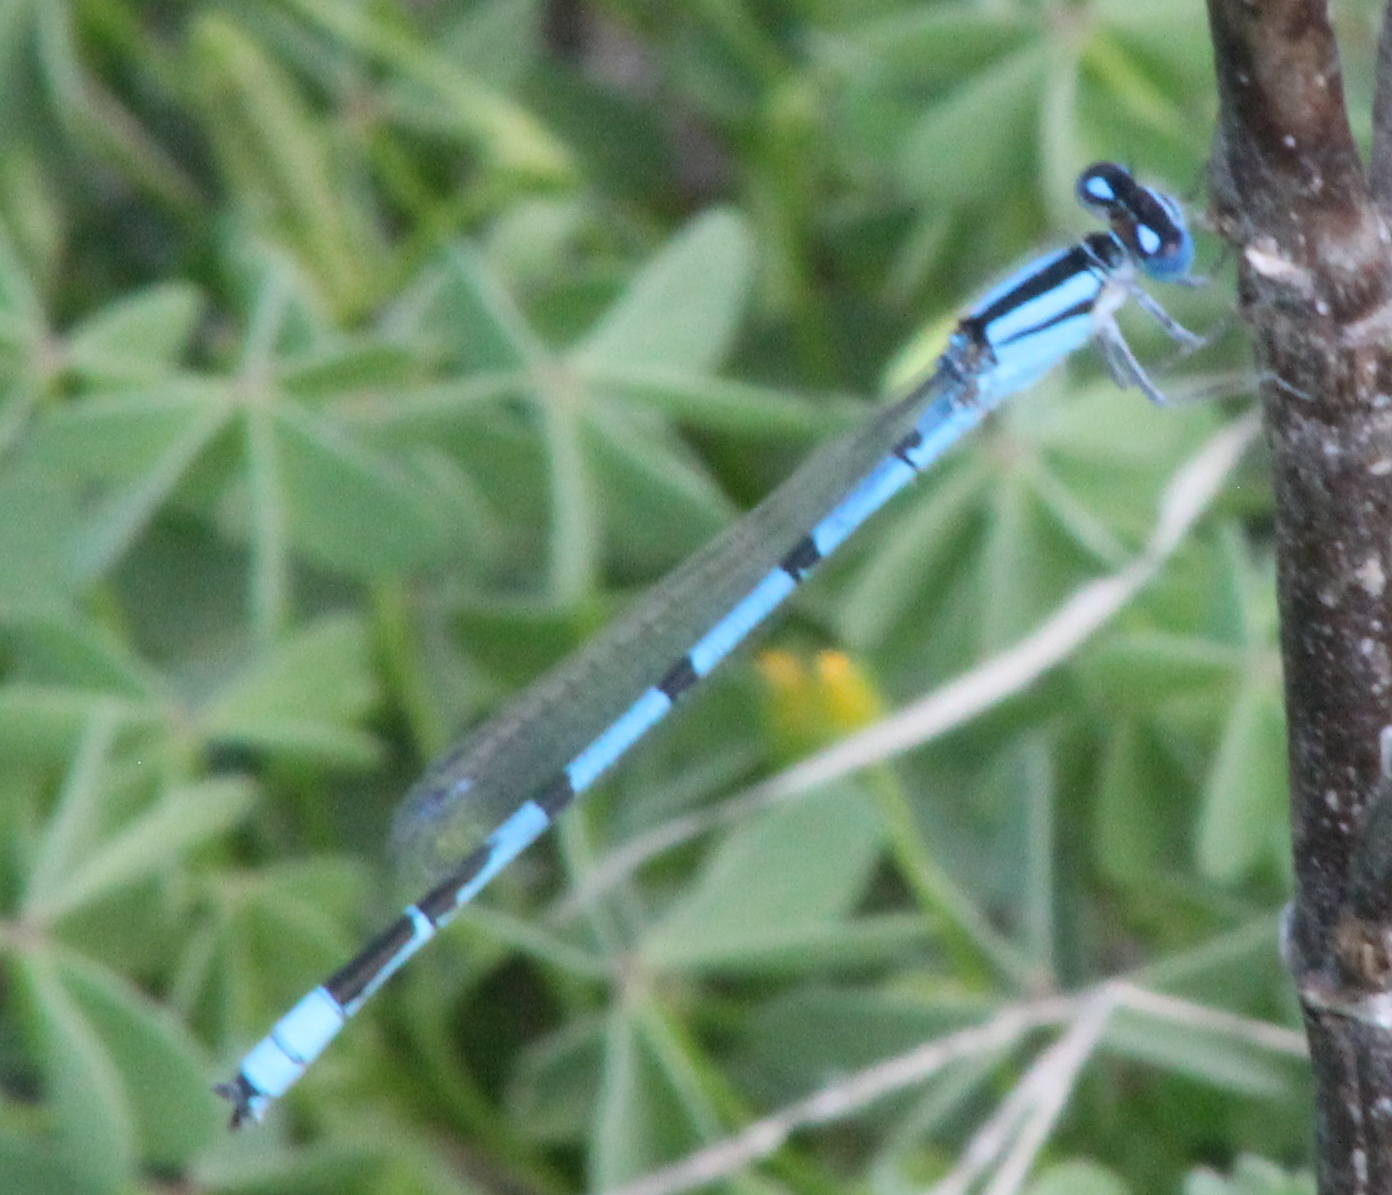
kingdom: Animalia
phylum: Arthropoda
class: Insecta
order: Odonata
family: Coenagrionidae
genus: Enallagma
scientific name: Enallagma civile
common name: Damselfly
